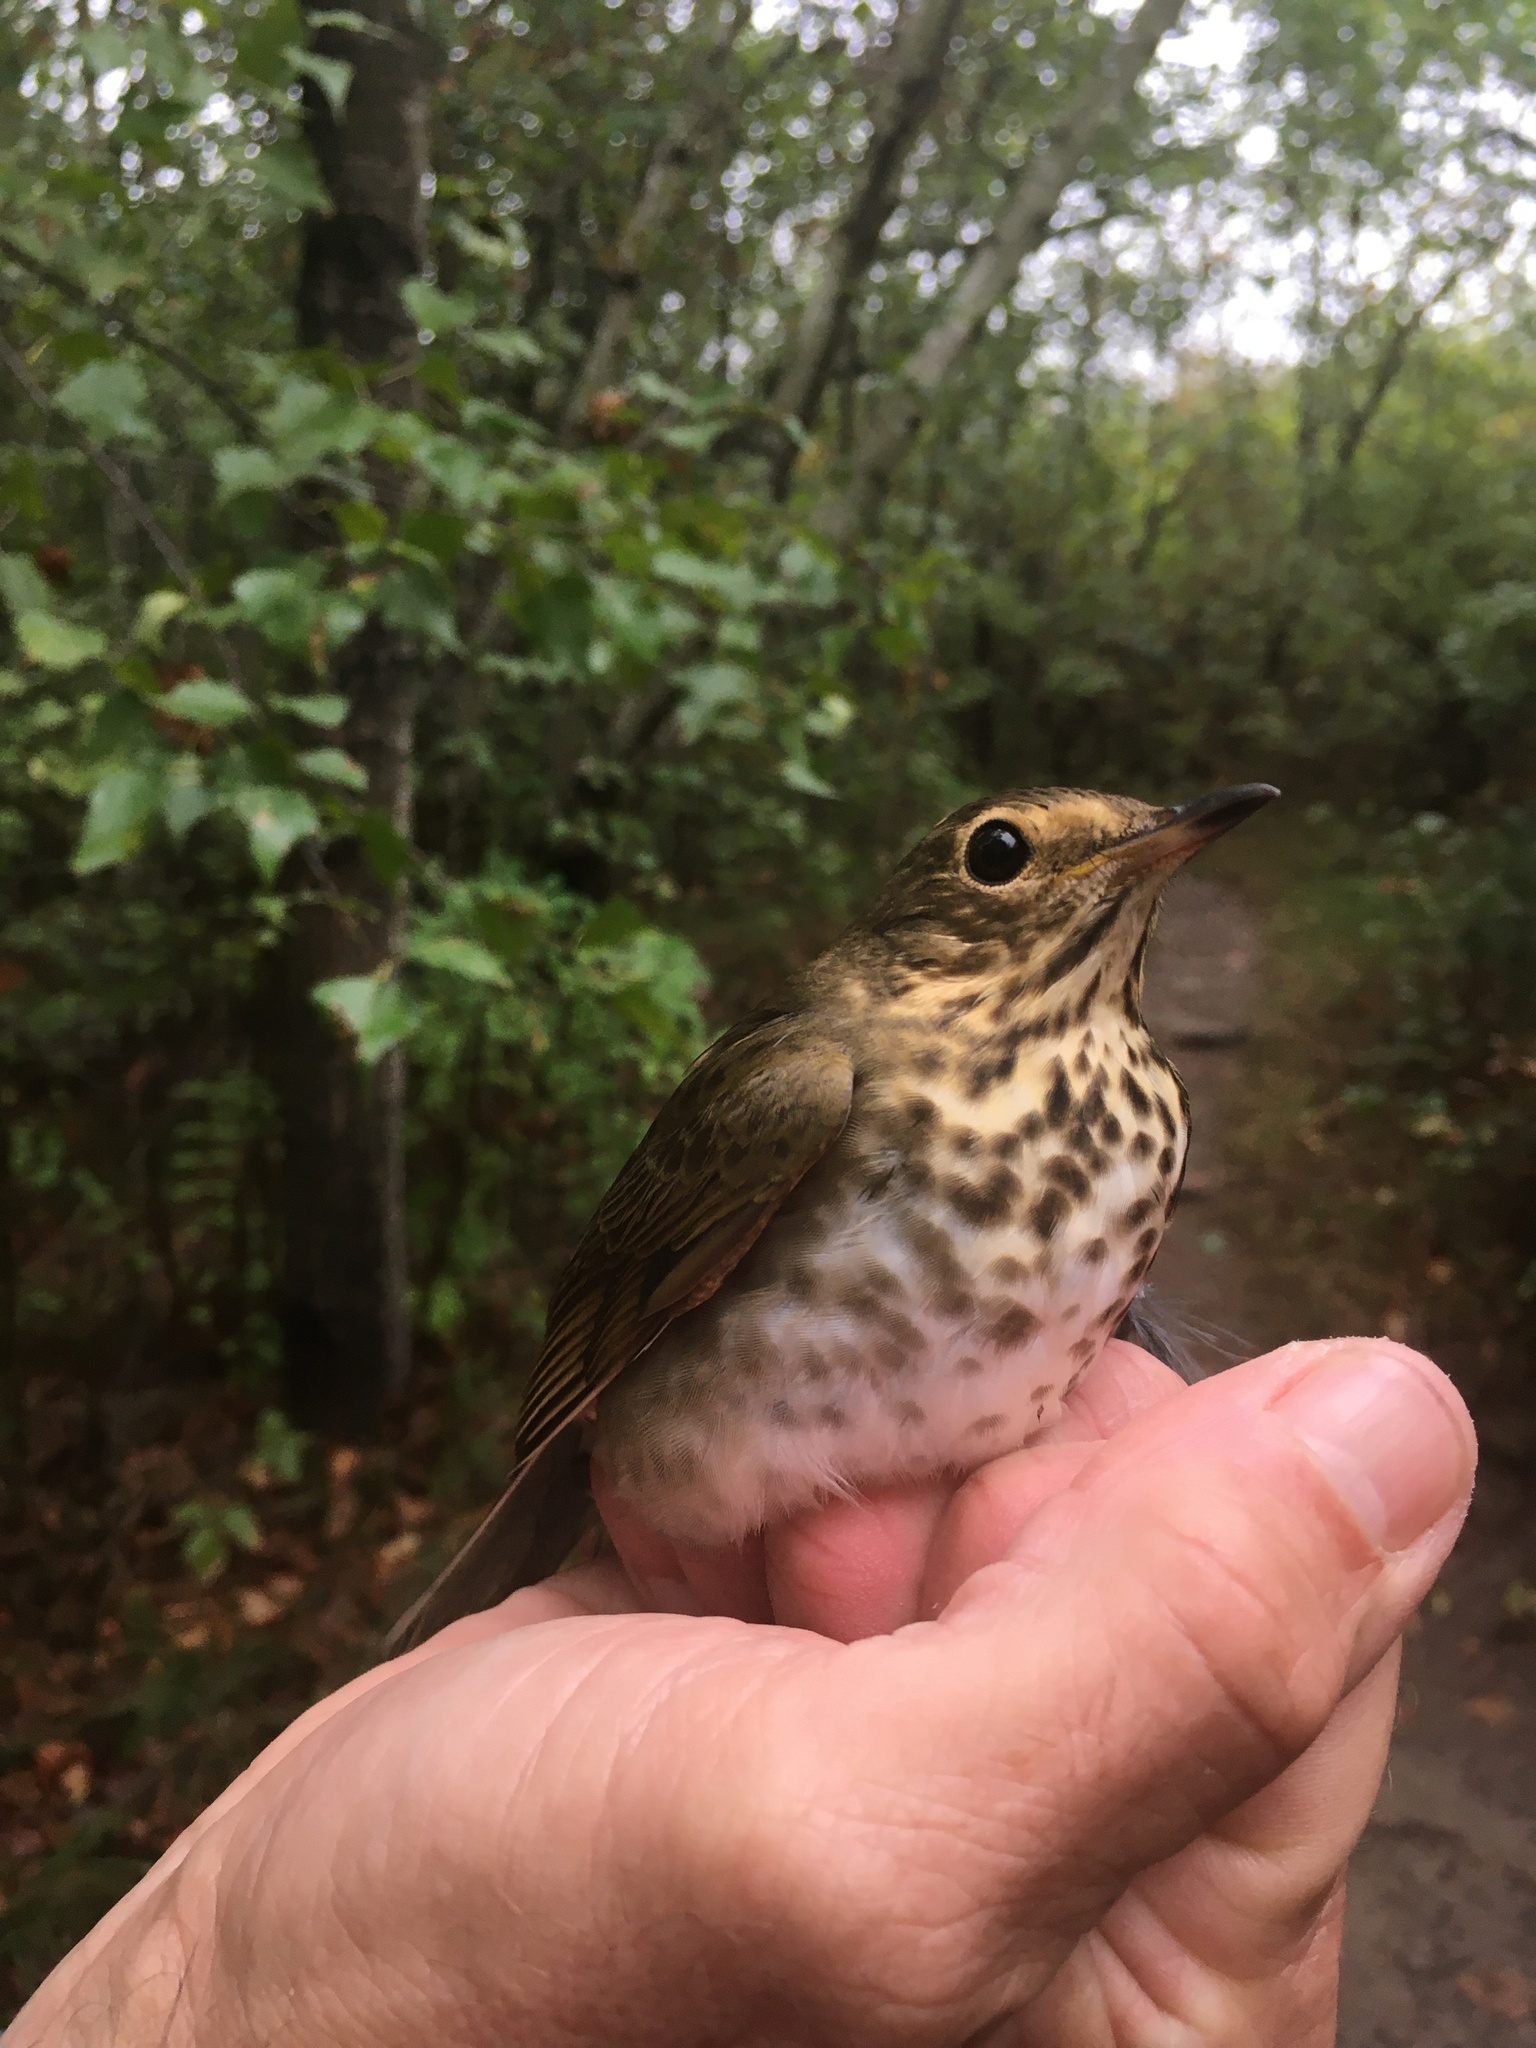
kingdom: Animalia
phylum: Chordata
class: Aves
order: Passeriformes
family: Turdidae
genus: Catharus
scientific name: Catharus ustulatus
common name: Swainson's thrush
